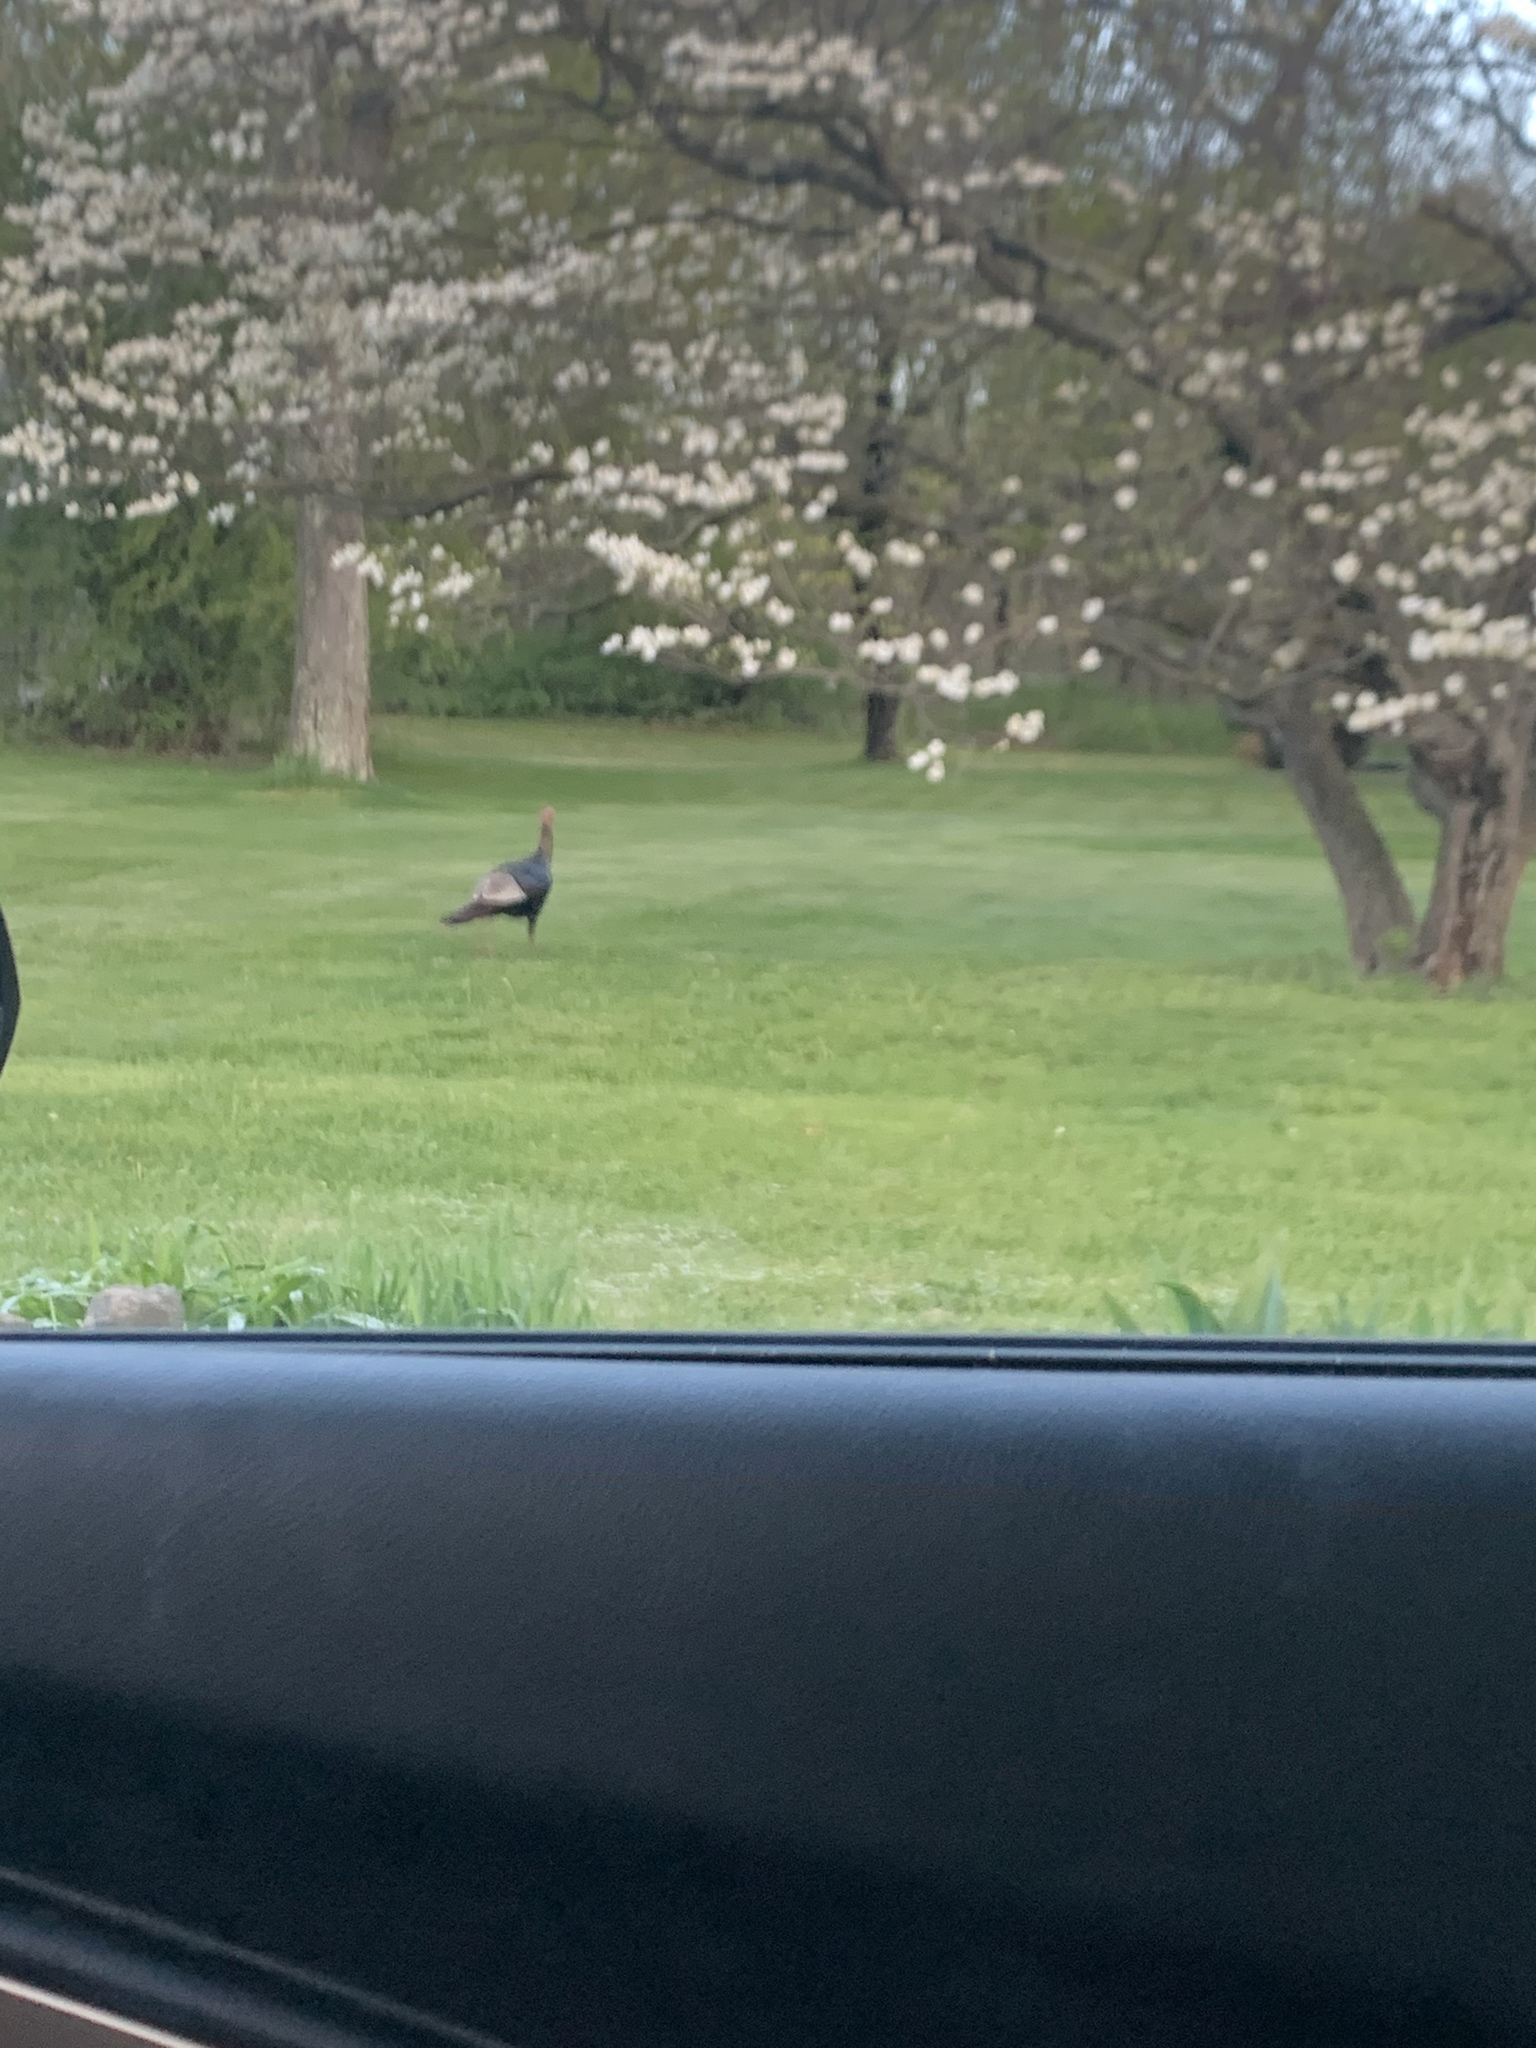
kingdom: Animalia
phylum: Chordata
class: Aves
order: Galliformes
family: Phasianidae
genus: Meleagris
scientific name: Meleagris gallopavo
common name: Wild turkey
